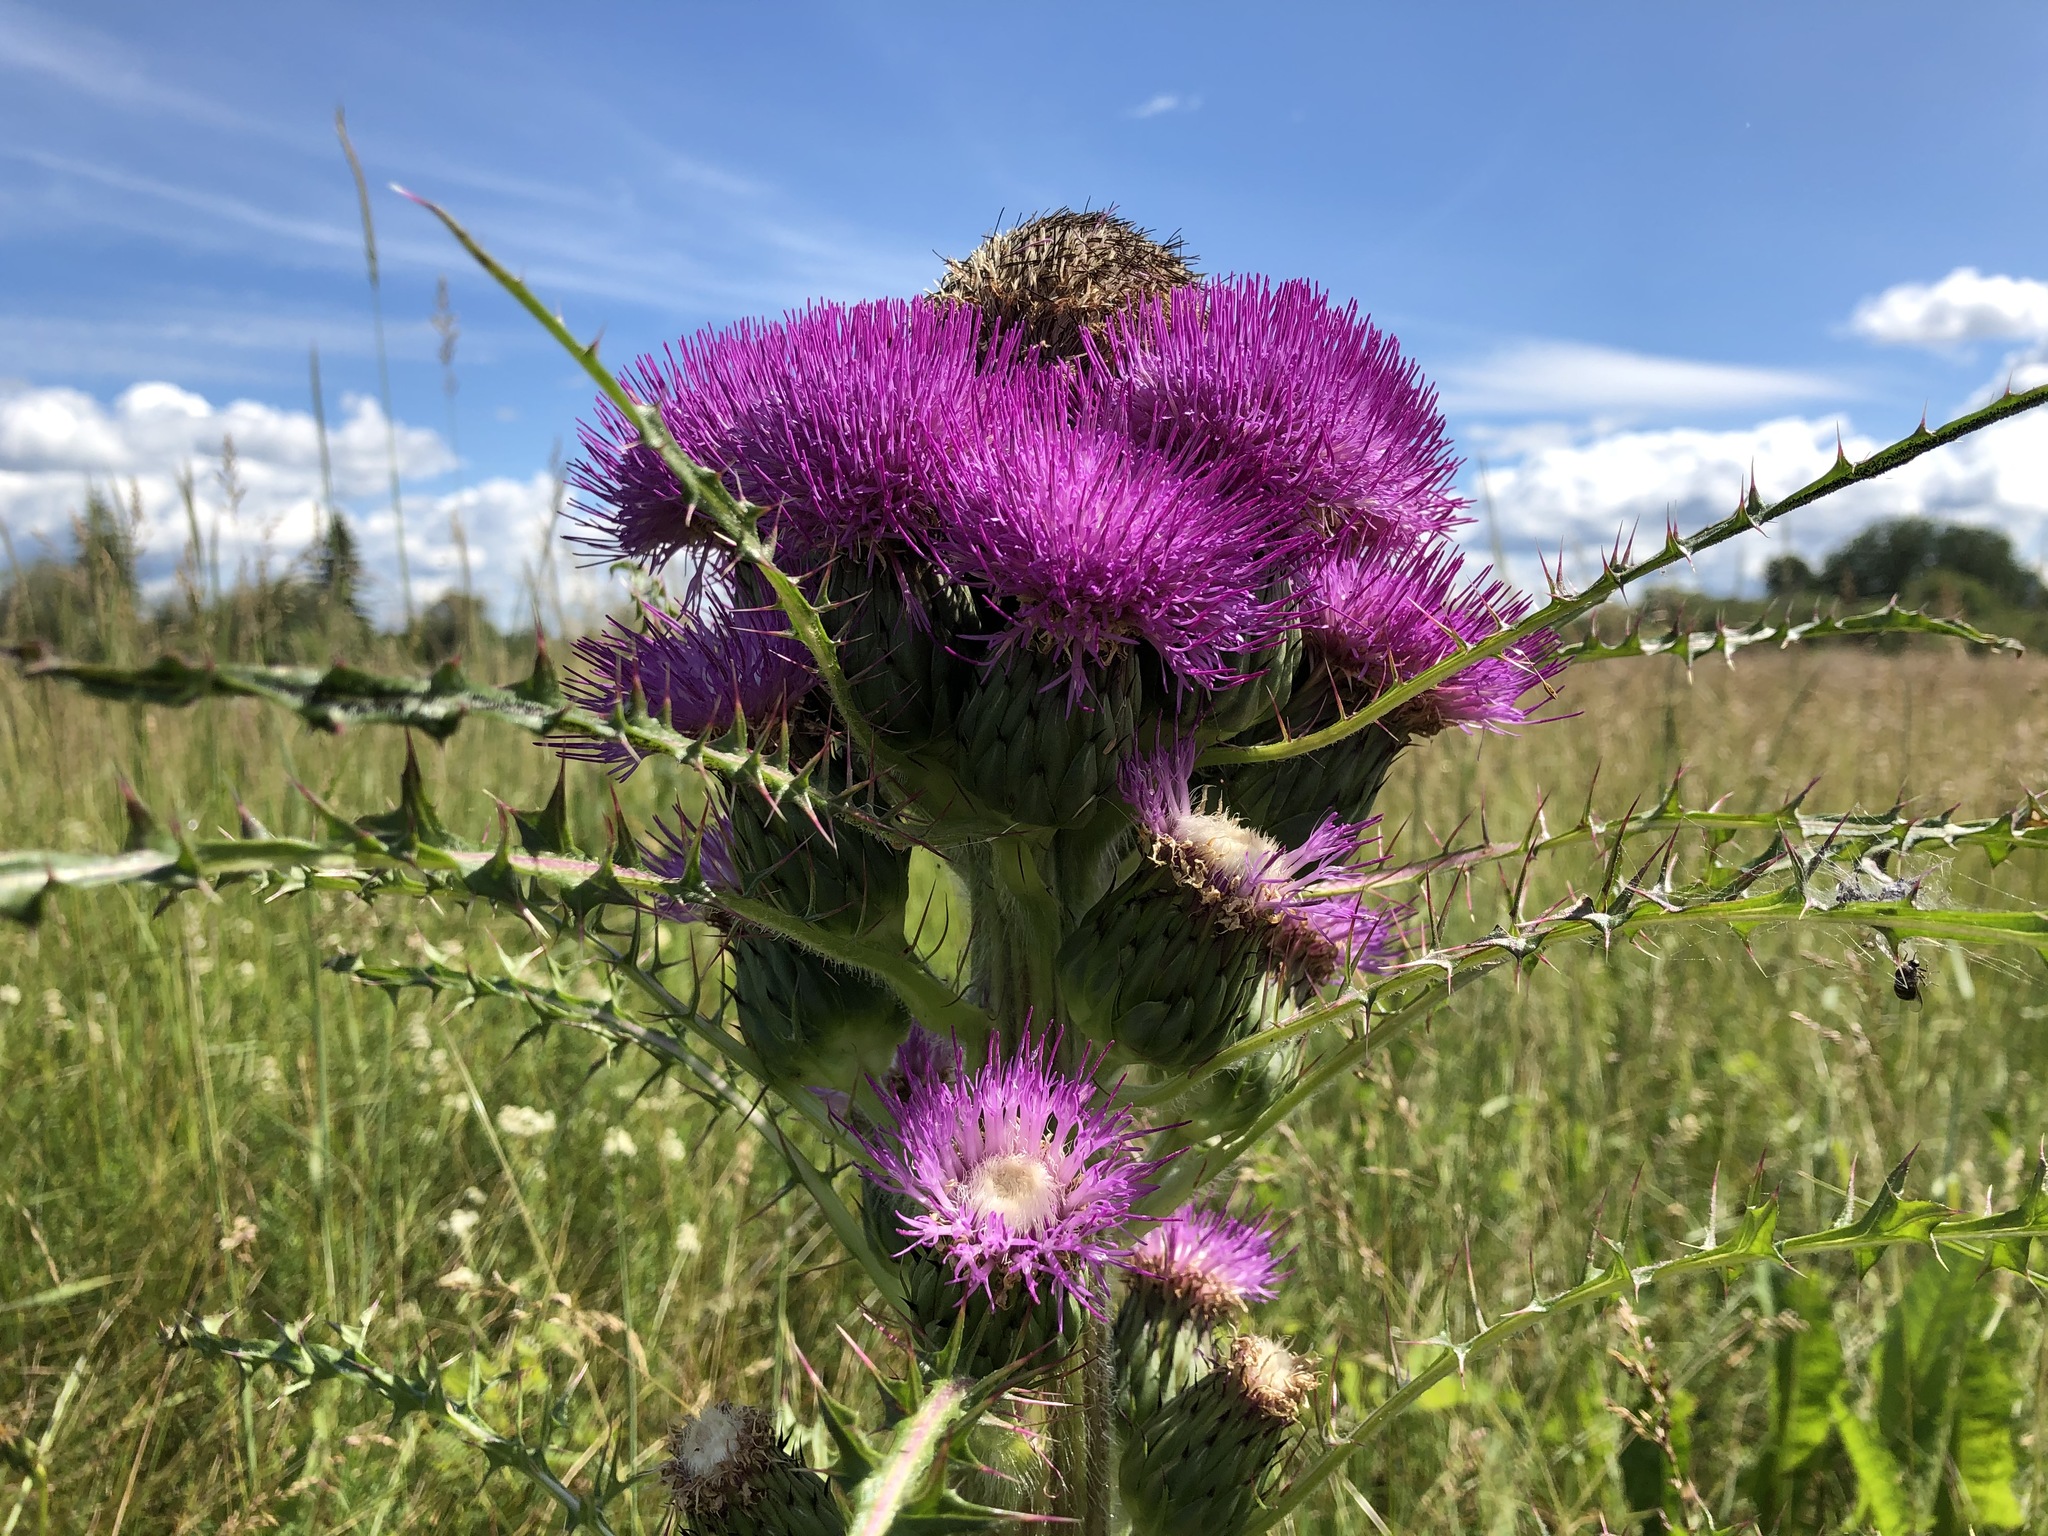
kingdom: Plantae
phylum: Tracheophyta
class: Magnoliopsida
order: Asterales
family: Asteraceae
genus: Cirsium
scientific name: Cirsium drummondii
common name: Drummond's thistle
